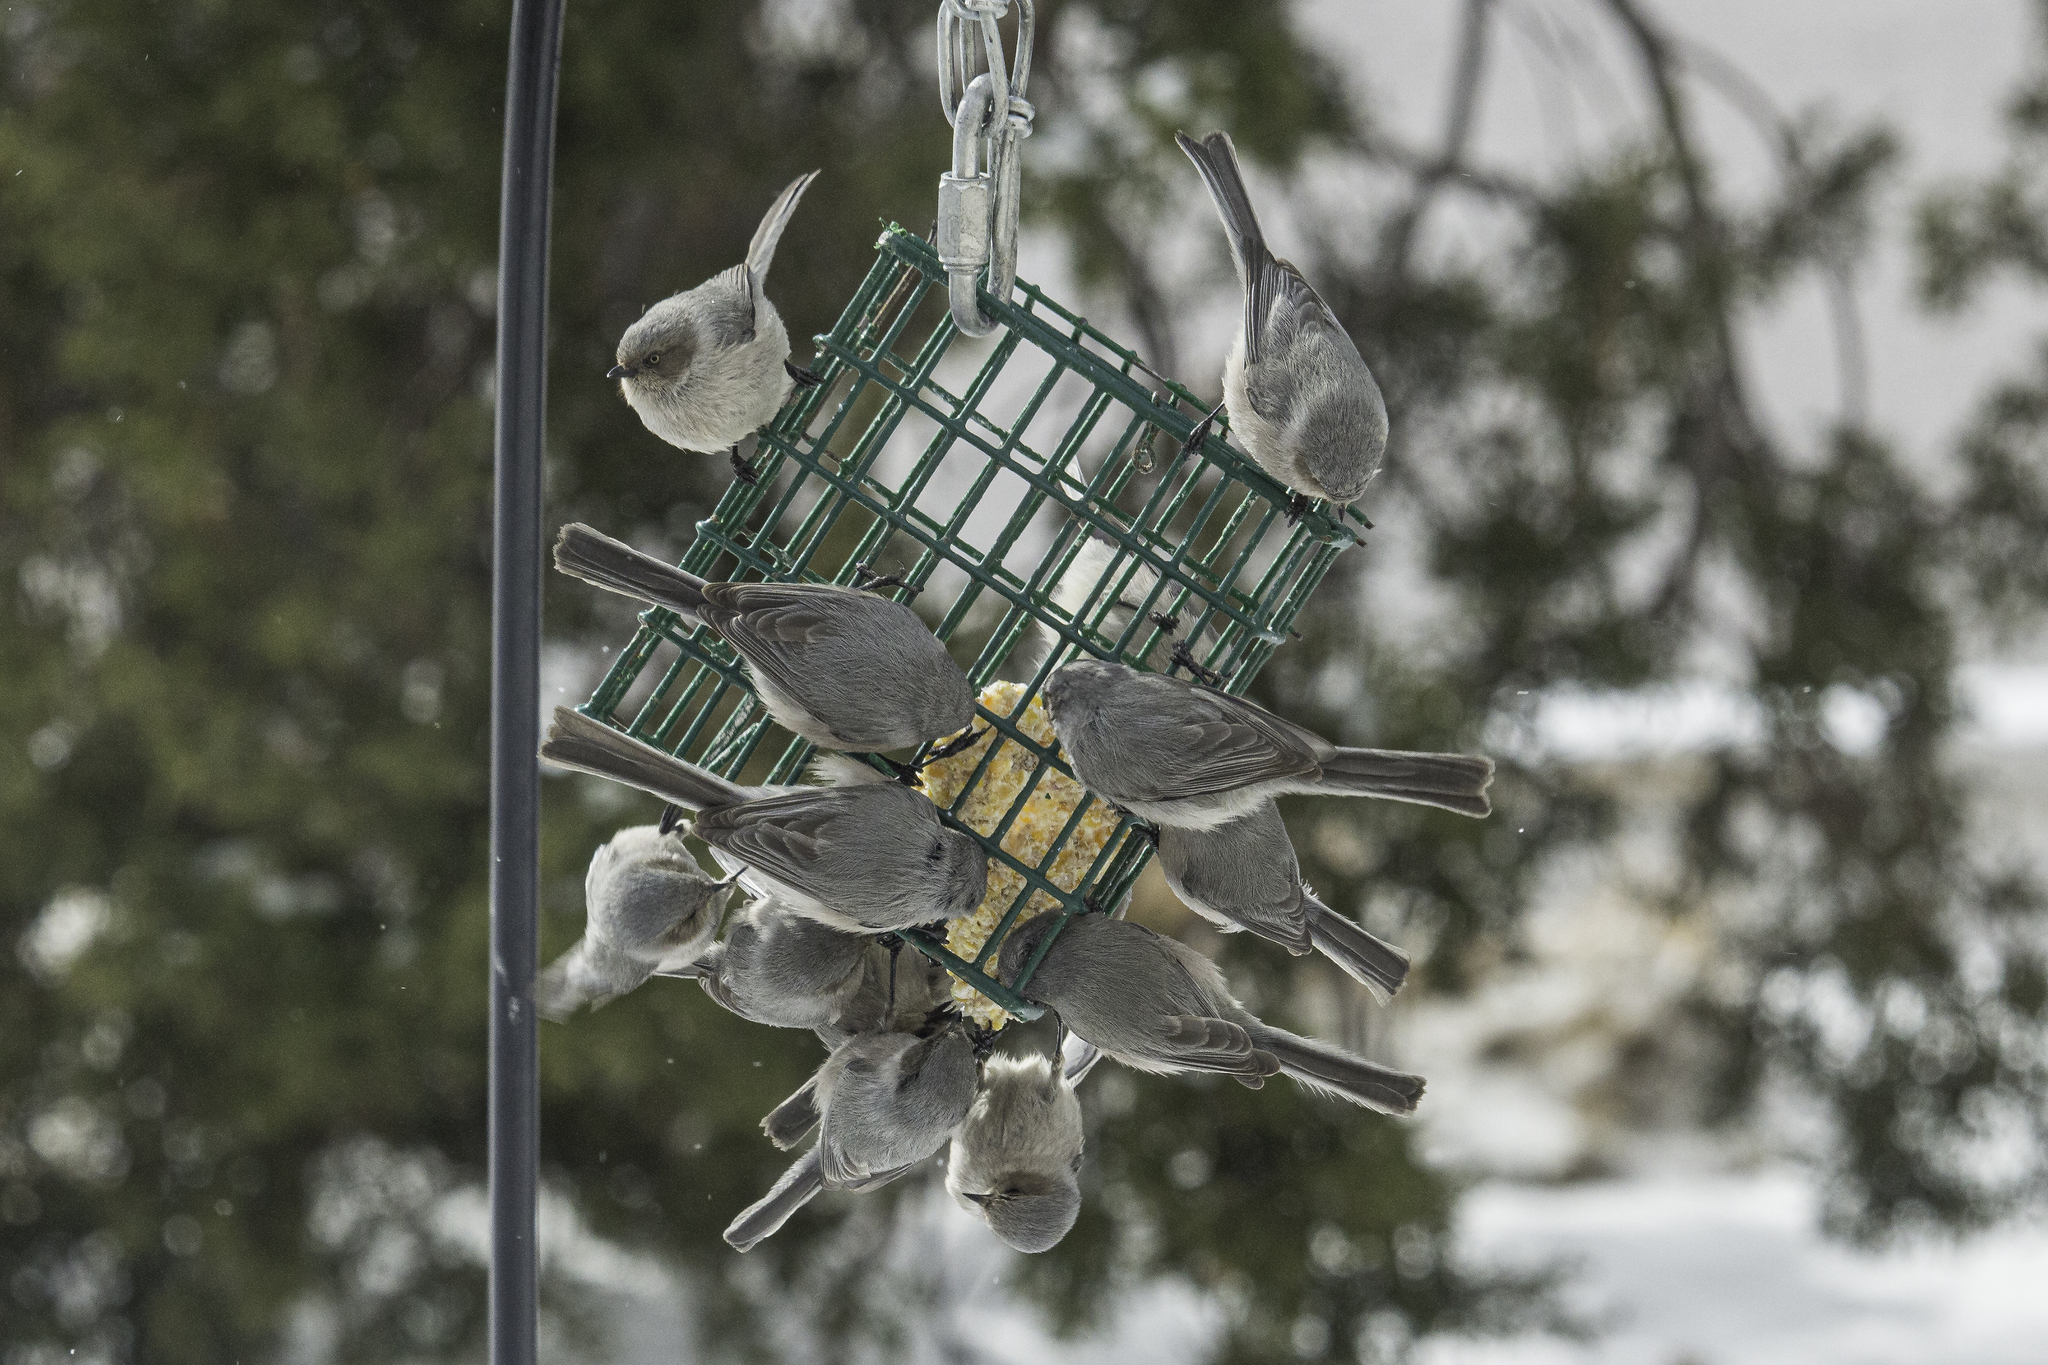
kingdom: Animalia
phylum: Chordata
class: Aves
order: Passeriformes
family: Aegithalidae
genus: Psaltriparus
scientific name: Psaltriparus minimus
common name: American bushtit
